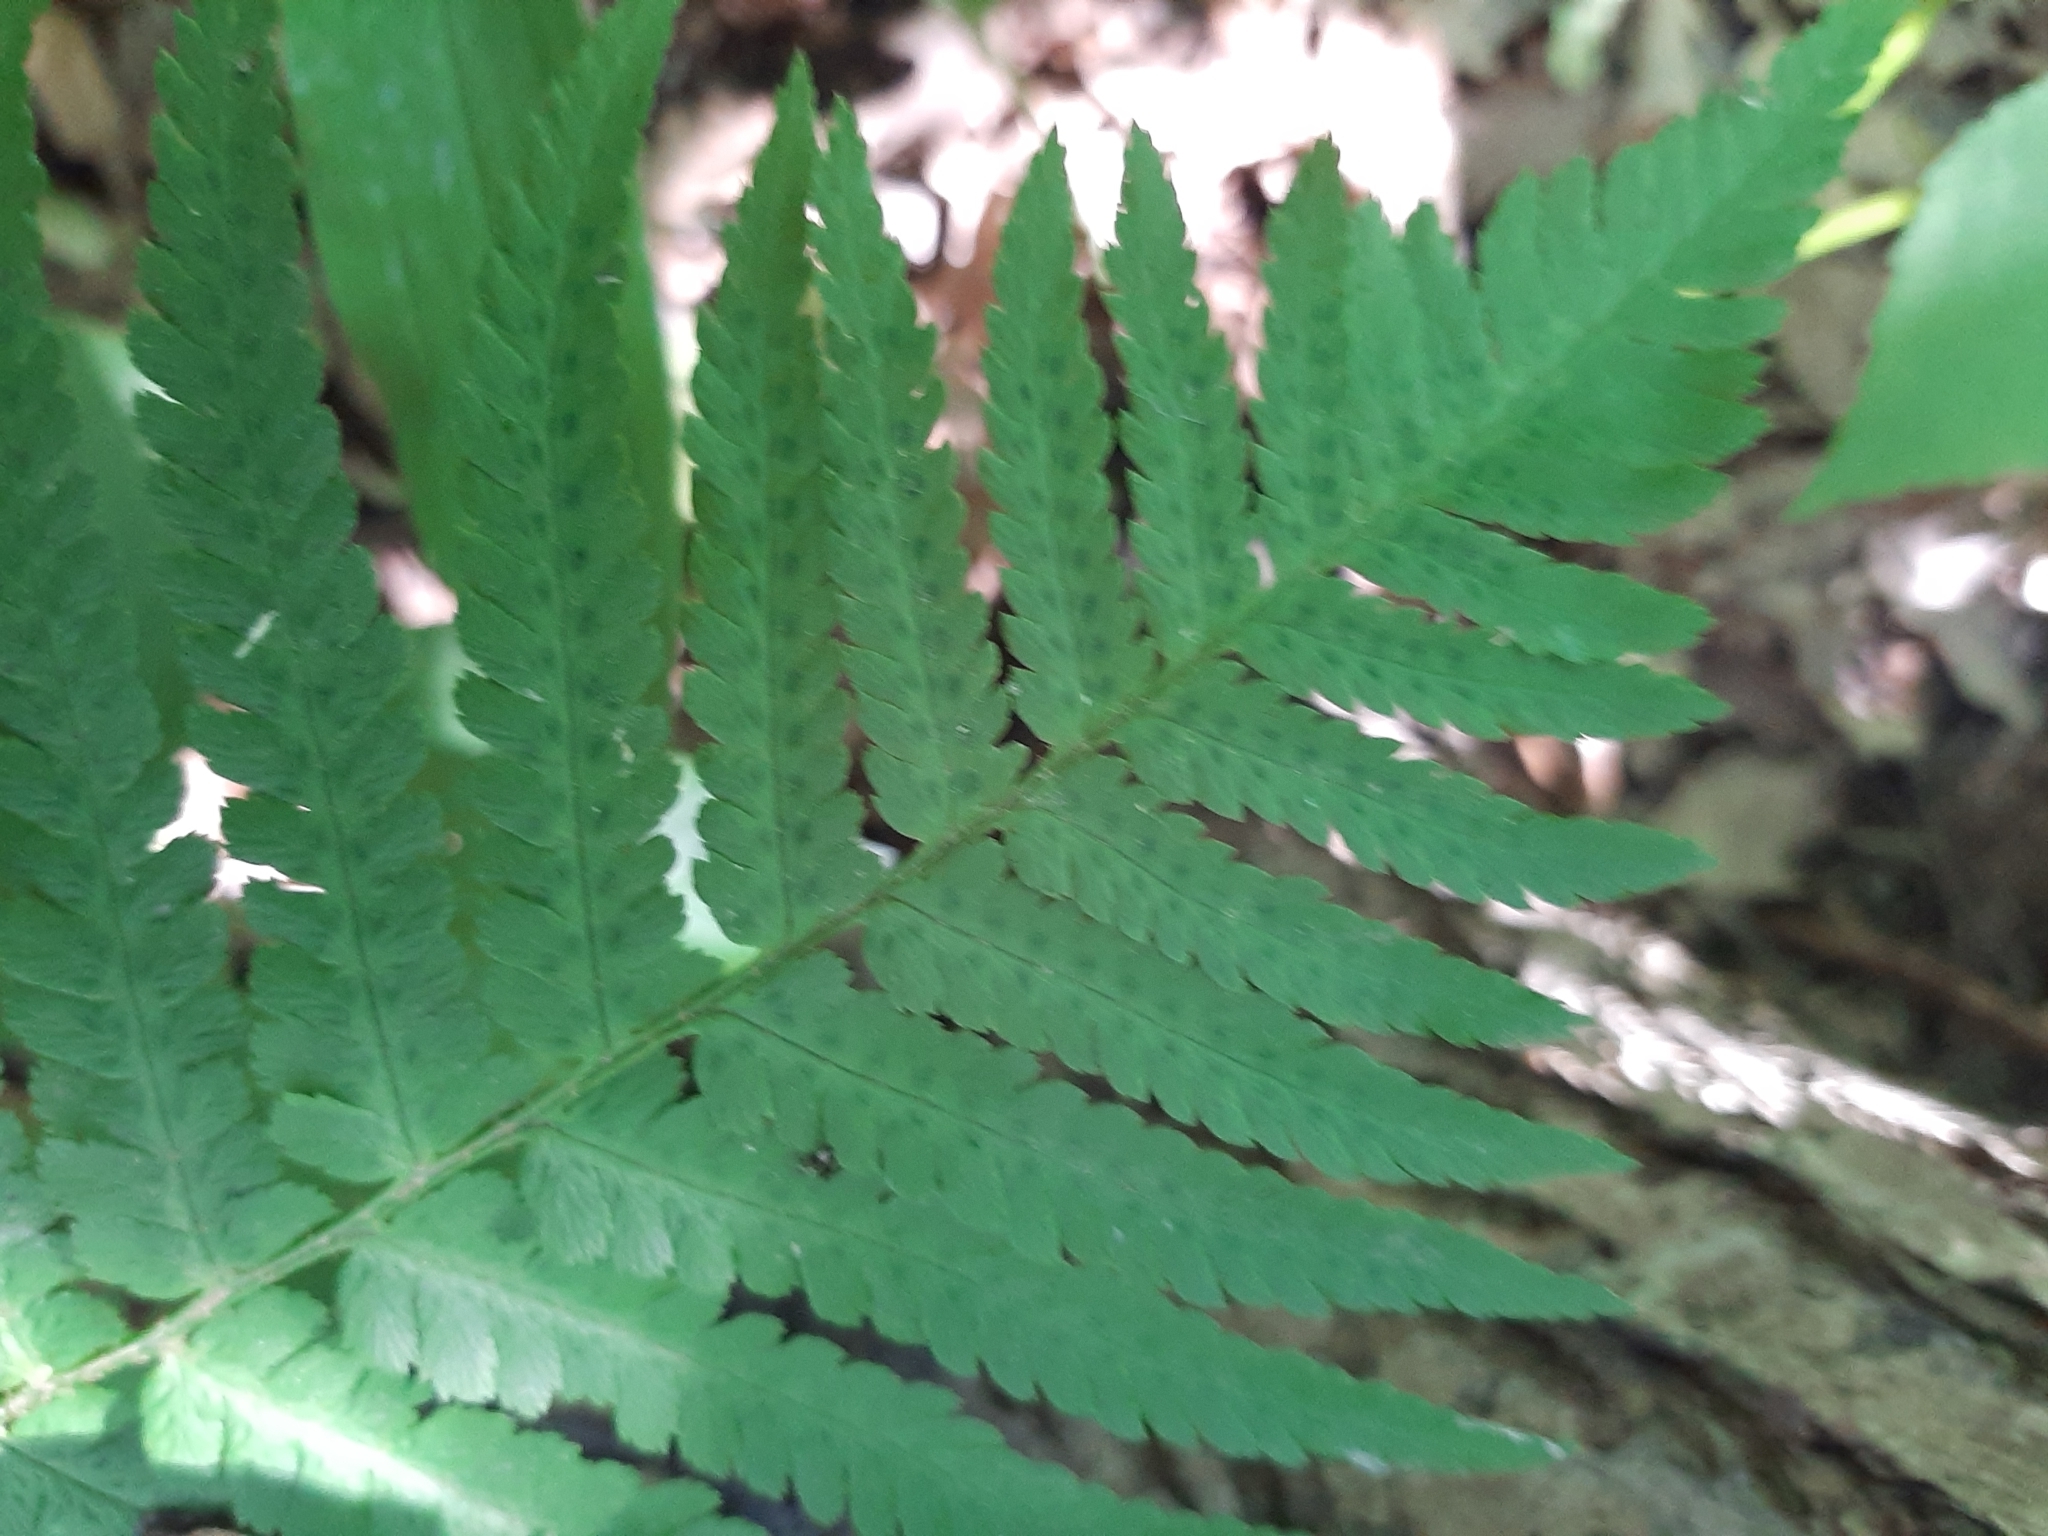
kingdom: Plantae
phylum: Tracheophyta
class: Polypodiopsida
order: Polypodiales
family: Dryopteridaceae
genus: Dryopteris
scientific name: Dryopteris filix-mas
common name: Male fern
